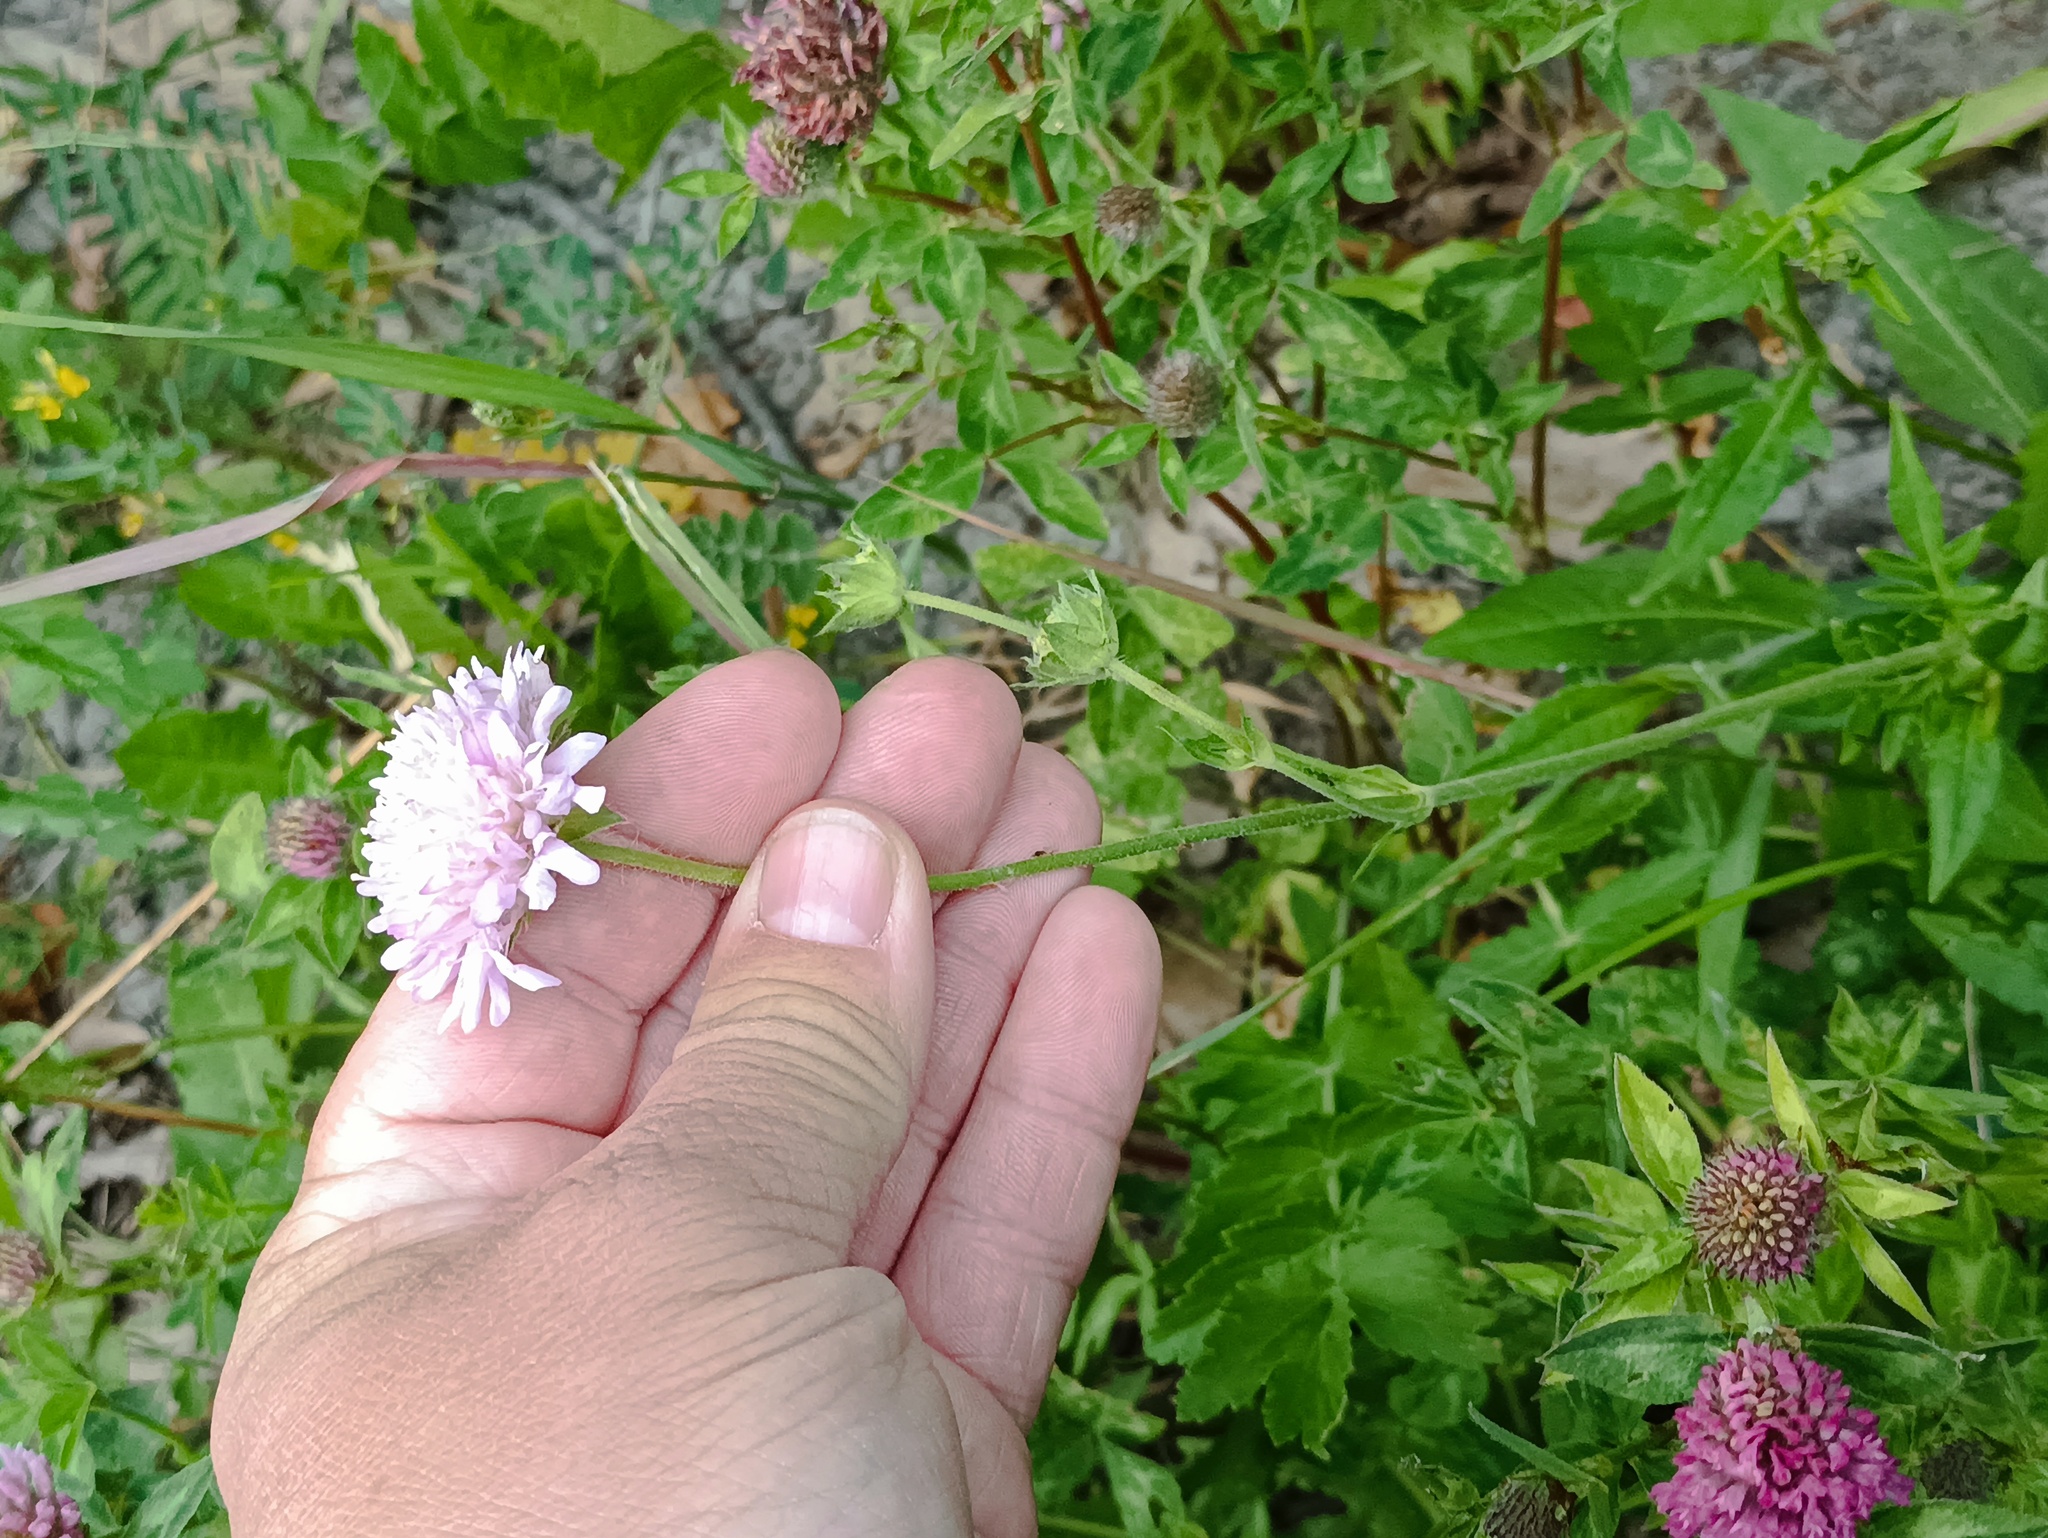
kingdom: Plantae
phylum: Tracheophyta
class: Magnoliopsida
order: Dipsacales
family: Caprifoliaceae
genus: Knautia
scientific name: Knautia arvensis
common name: Field scabiosa
